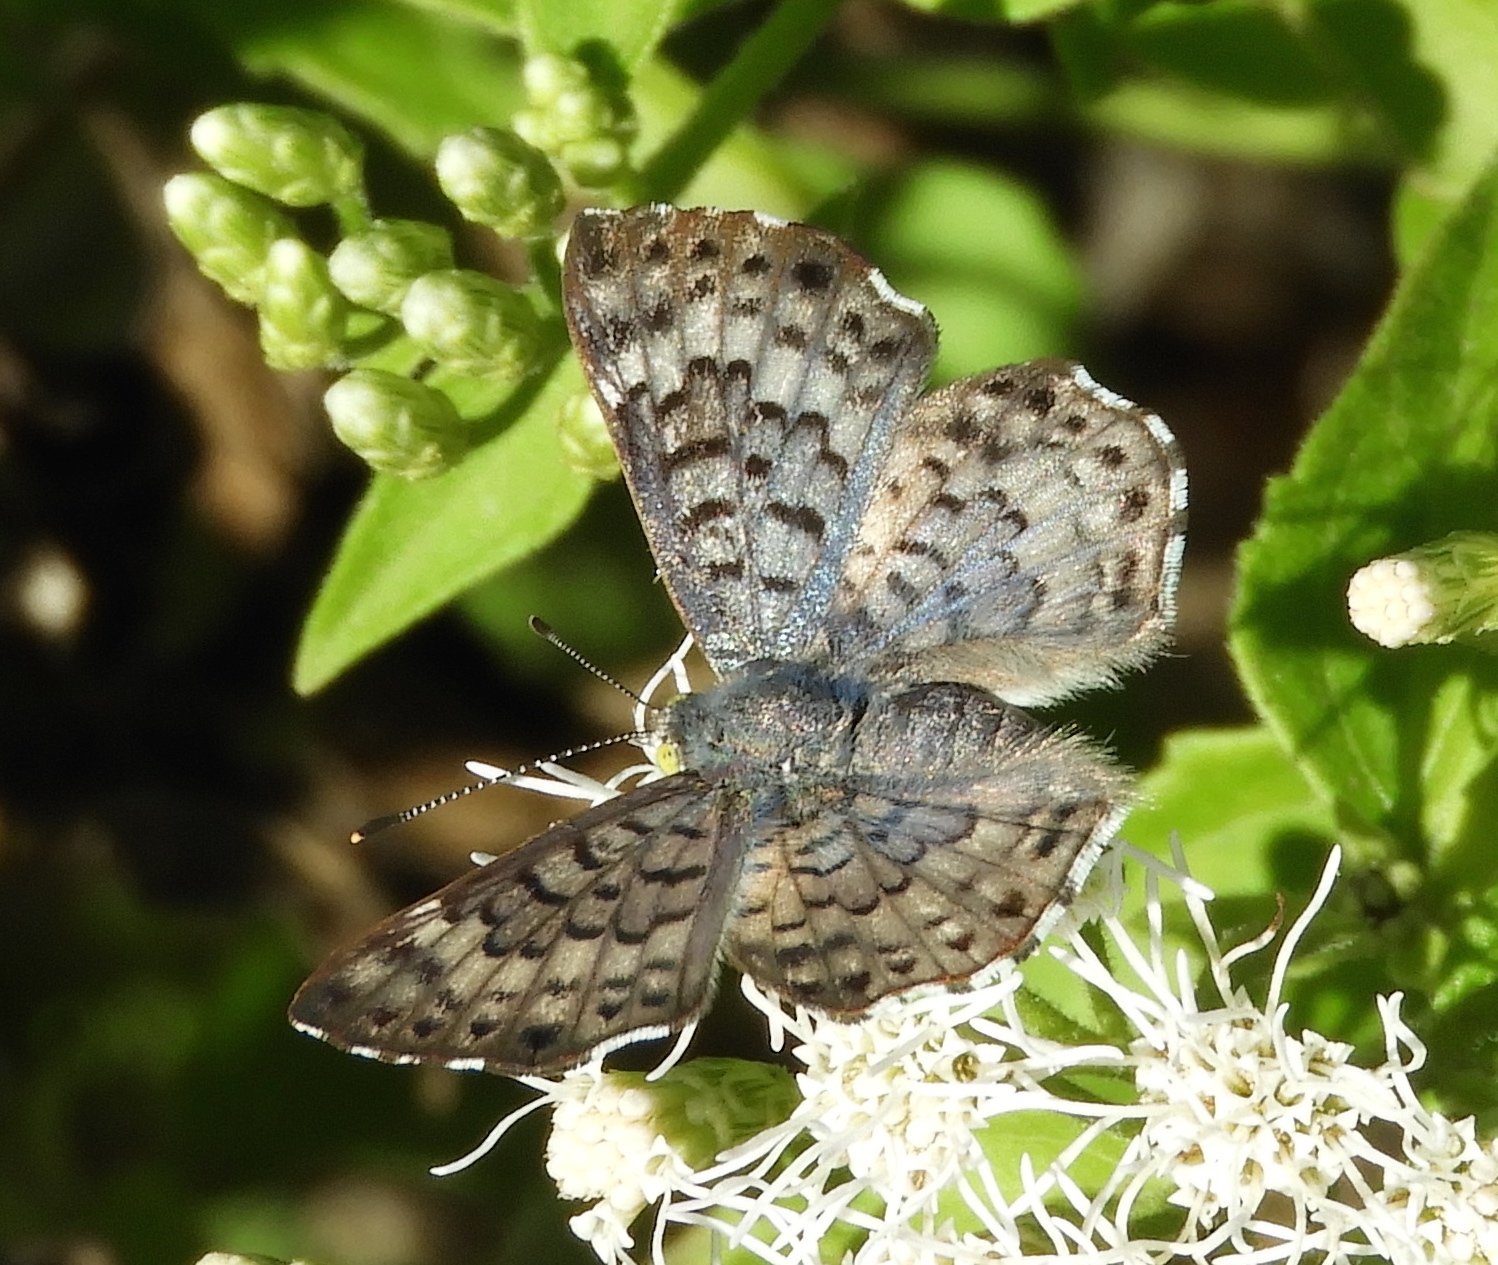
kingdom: Animalia
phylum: Arthropoda
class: Insecta
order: Lepidoptera
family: Riodinidae
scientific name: Riodinidae
